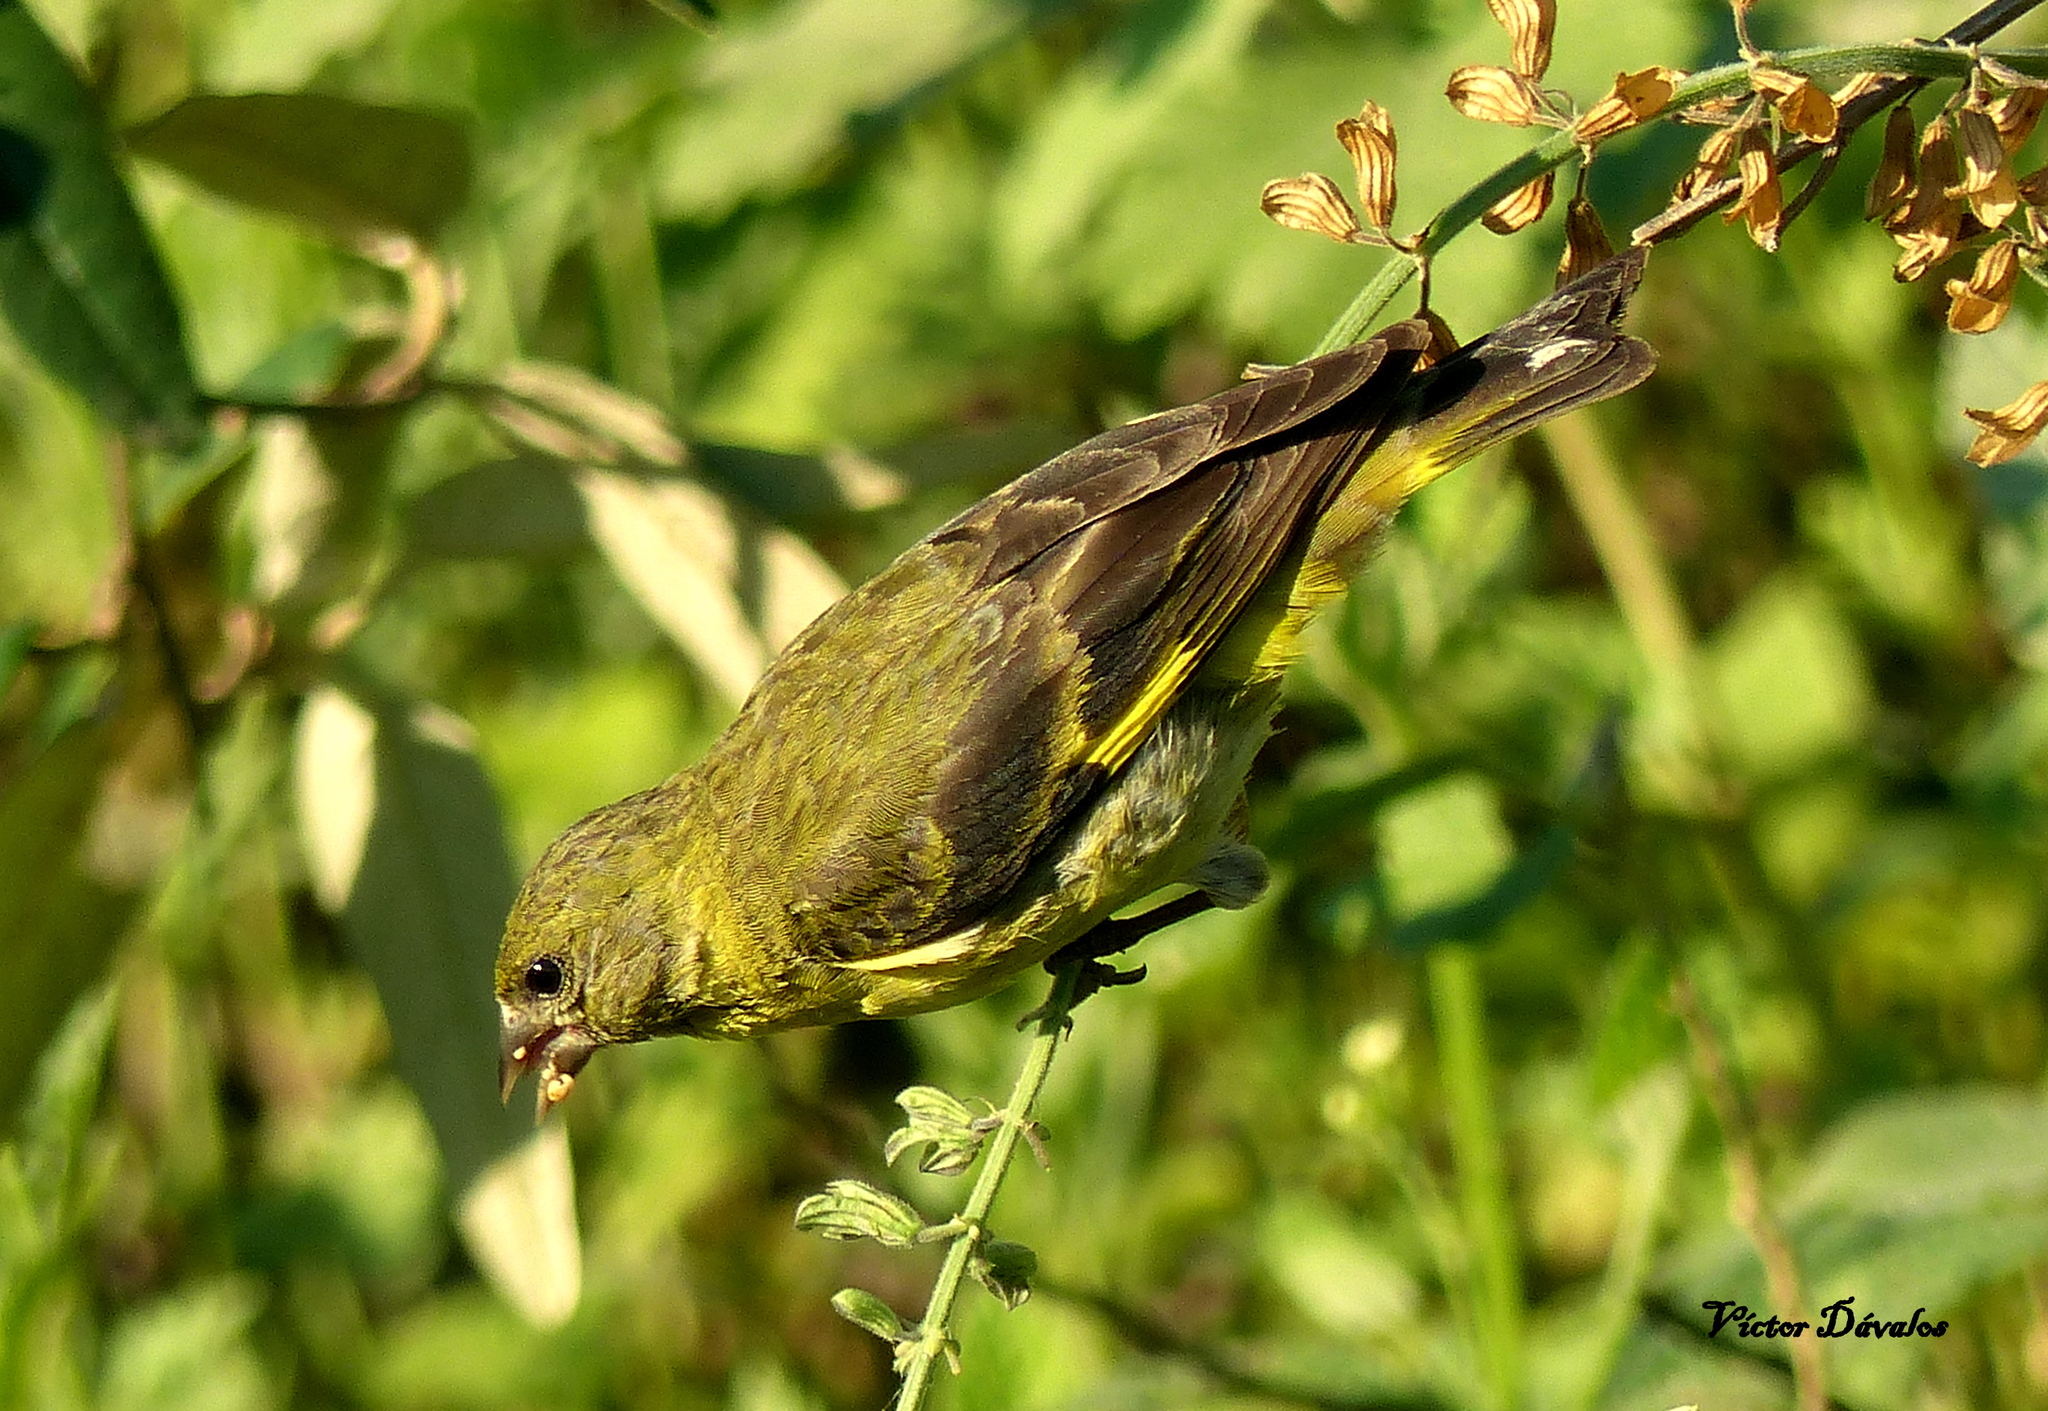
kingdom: Animalia
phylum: Chordata
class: Aves
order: Passeriformes
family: Fringillidae
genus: Spinus
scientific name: Spinus magellanicus
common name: Hooded siskin
